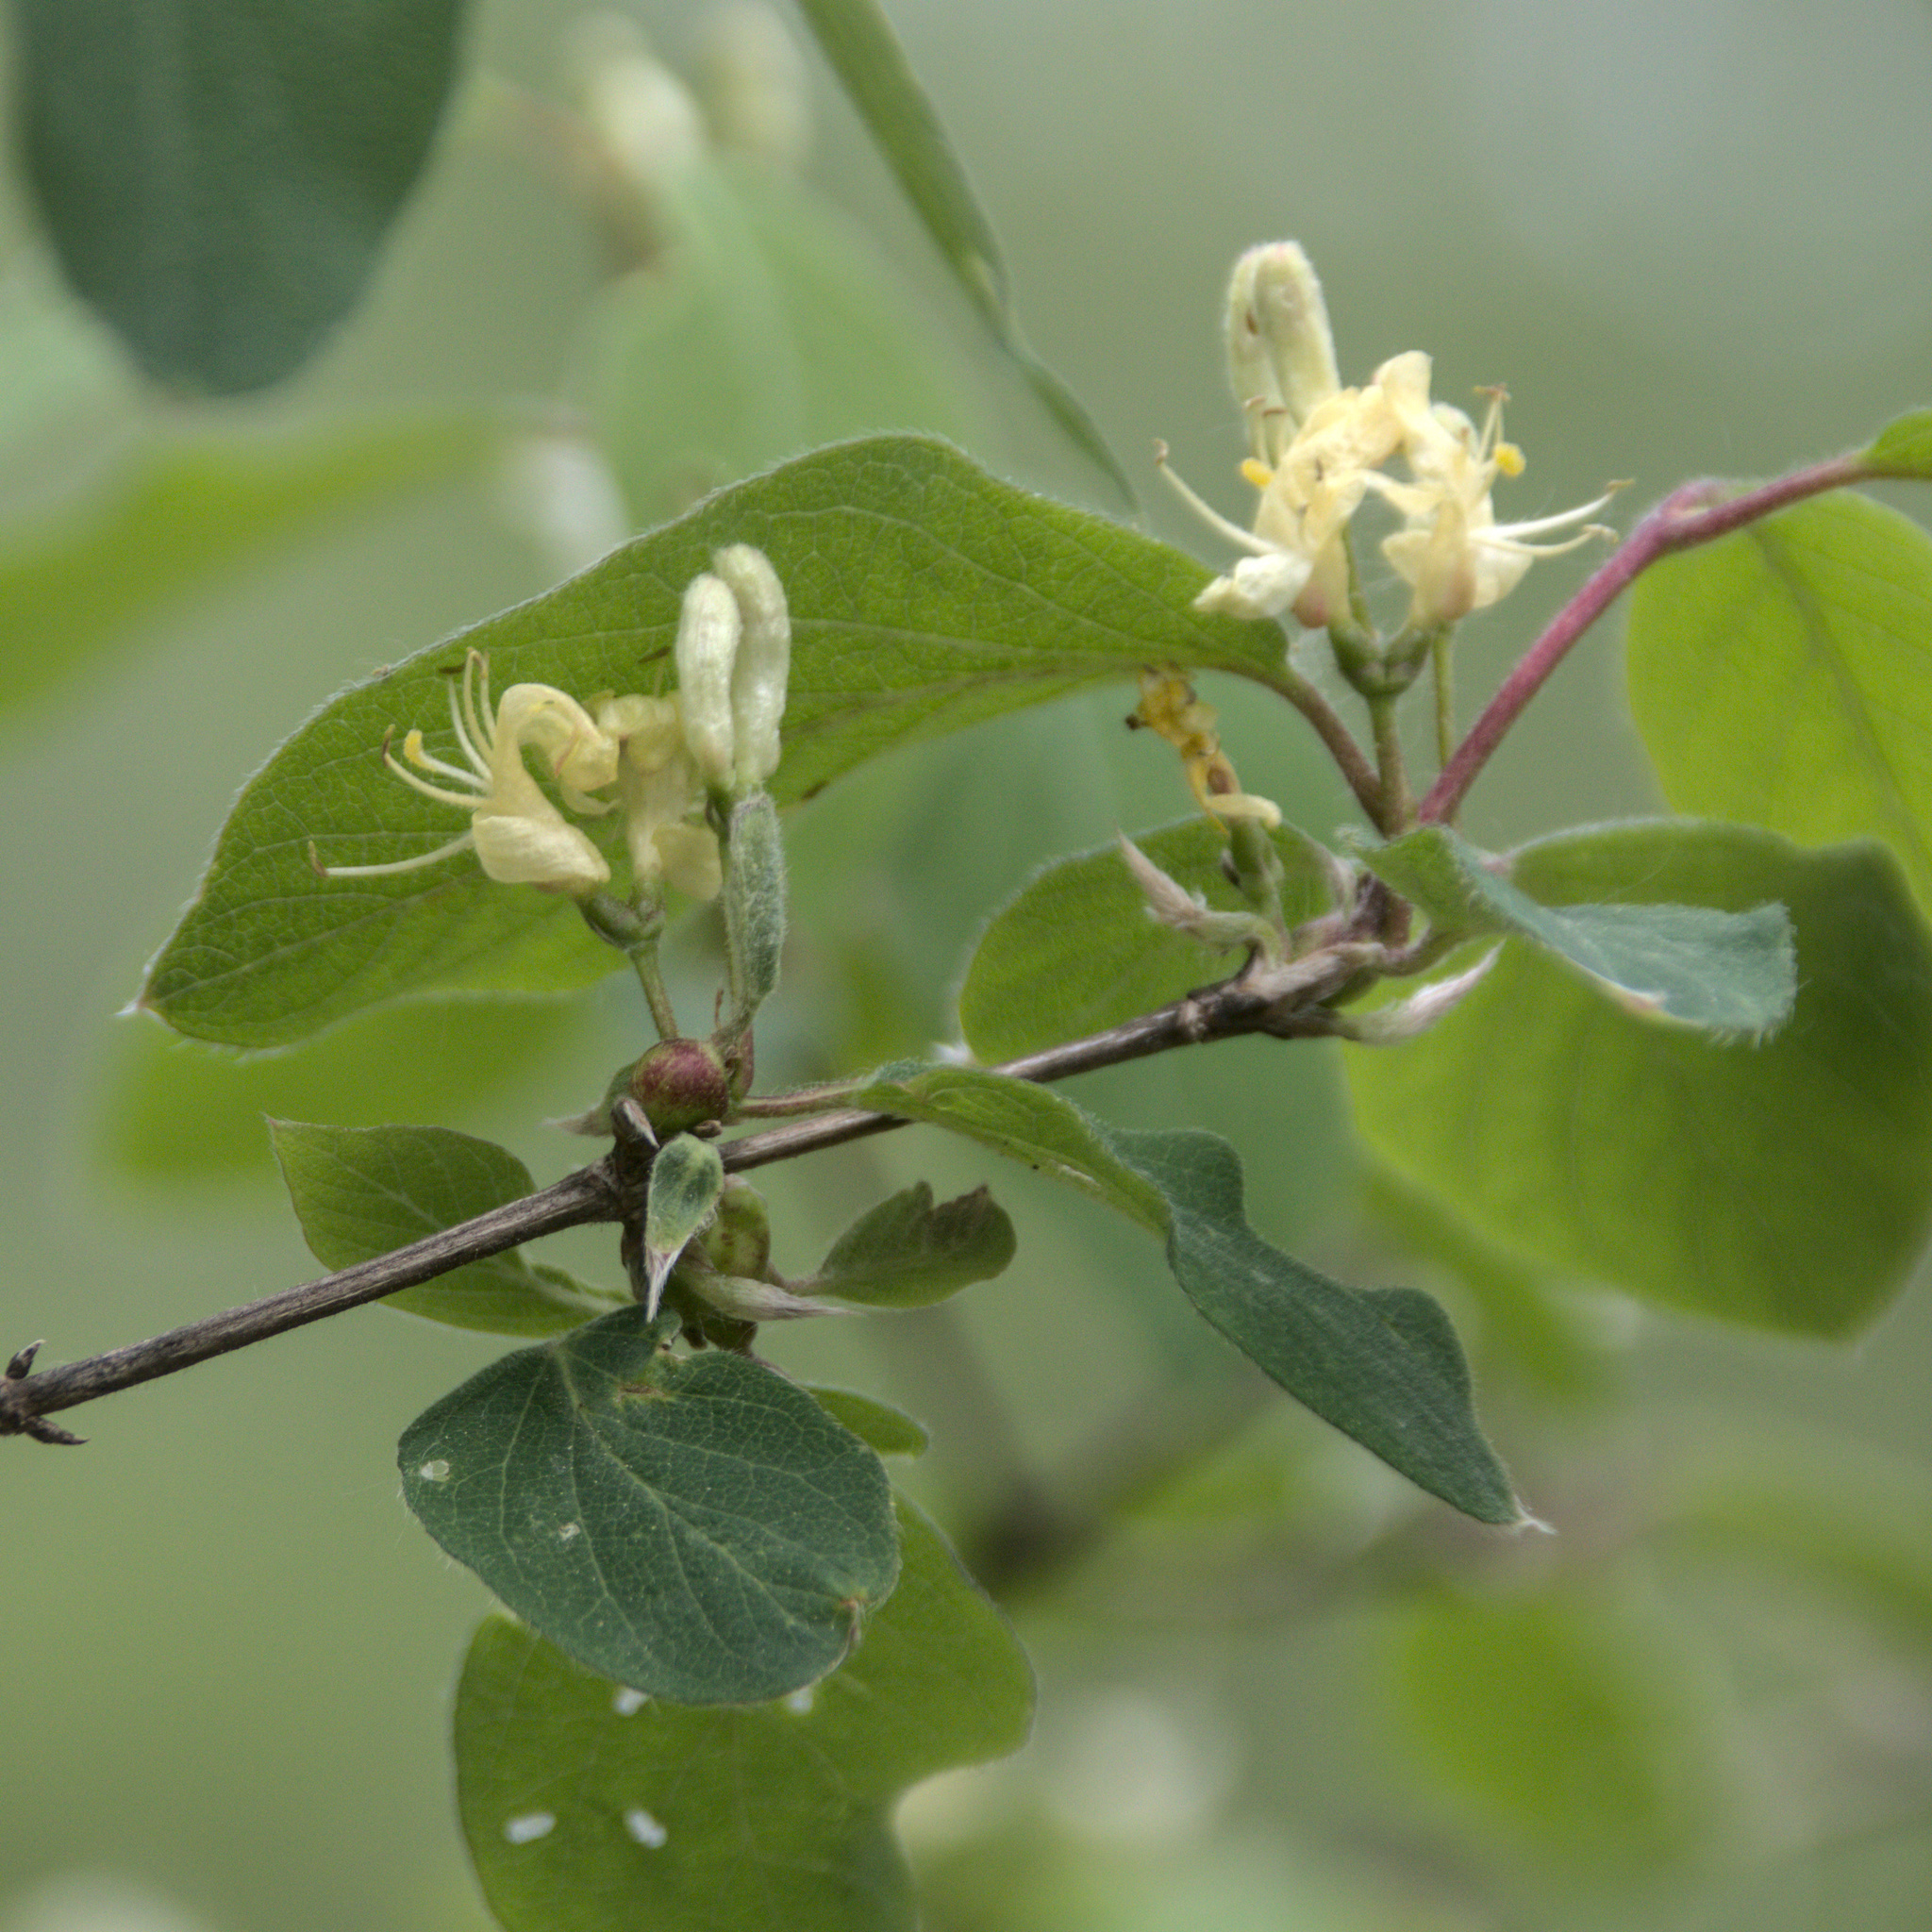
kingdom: Plantae
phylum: Tracheophyta
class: Magnoliopsida
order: Dipsacales
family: Caprifoliaceae
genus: Lonicera
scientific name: Lonicera xylosteum
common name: Fly honeysuckle
